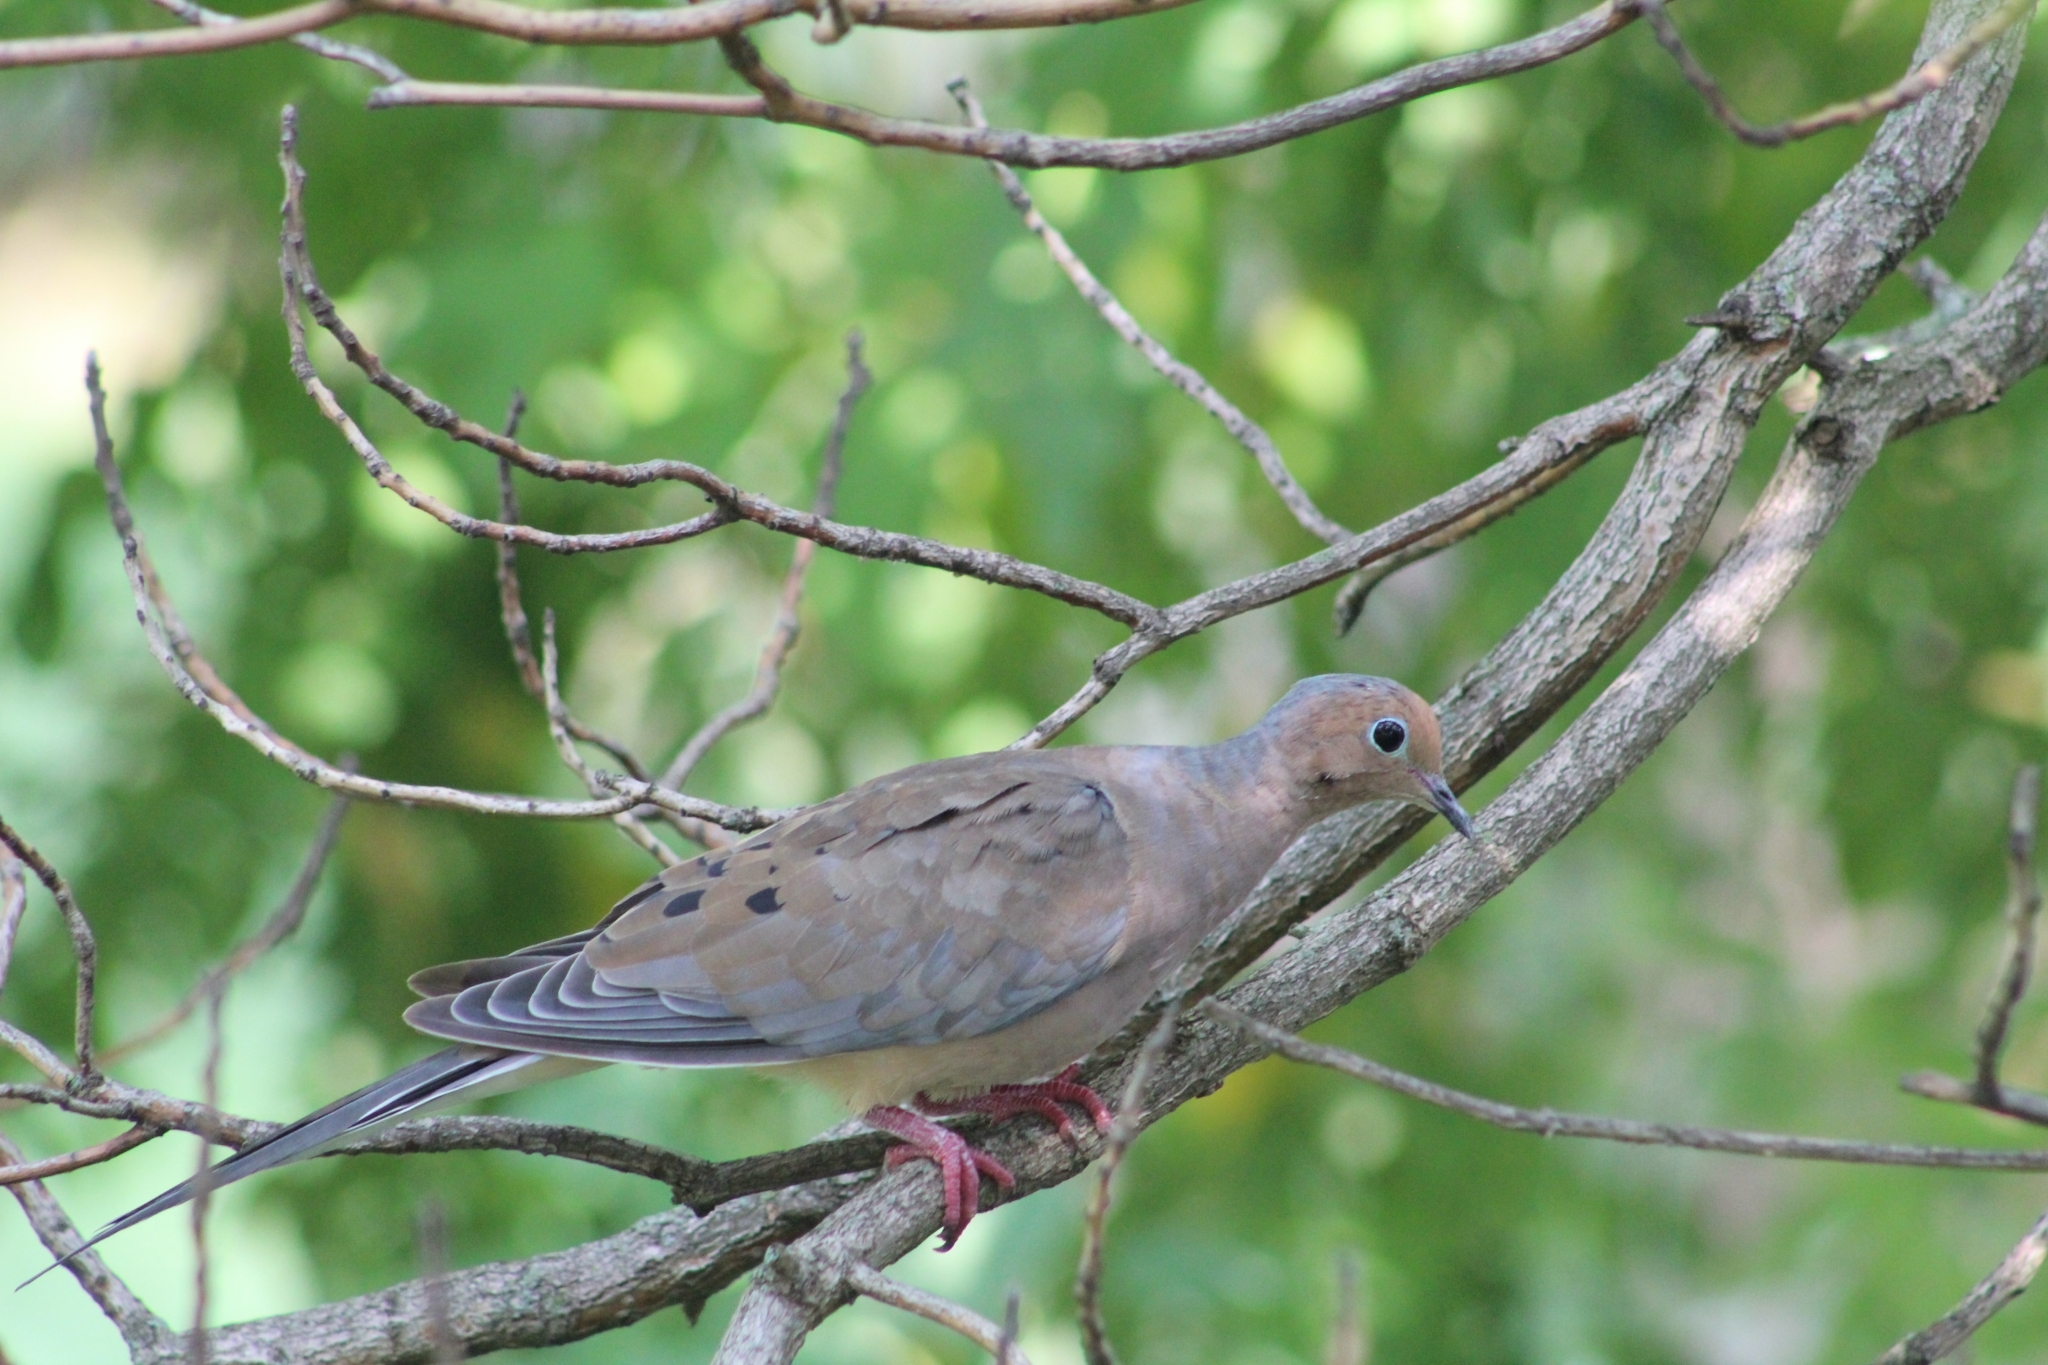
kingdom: Animalia
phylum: Chordata
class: Aves
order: Columbiformes
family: Columbidae
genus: Zenaida
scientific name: Zenaida macroura
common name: Mourning dove
